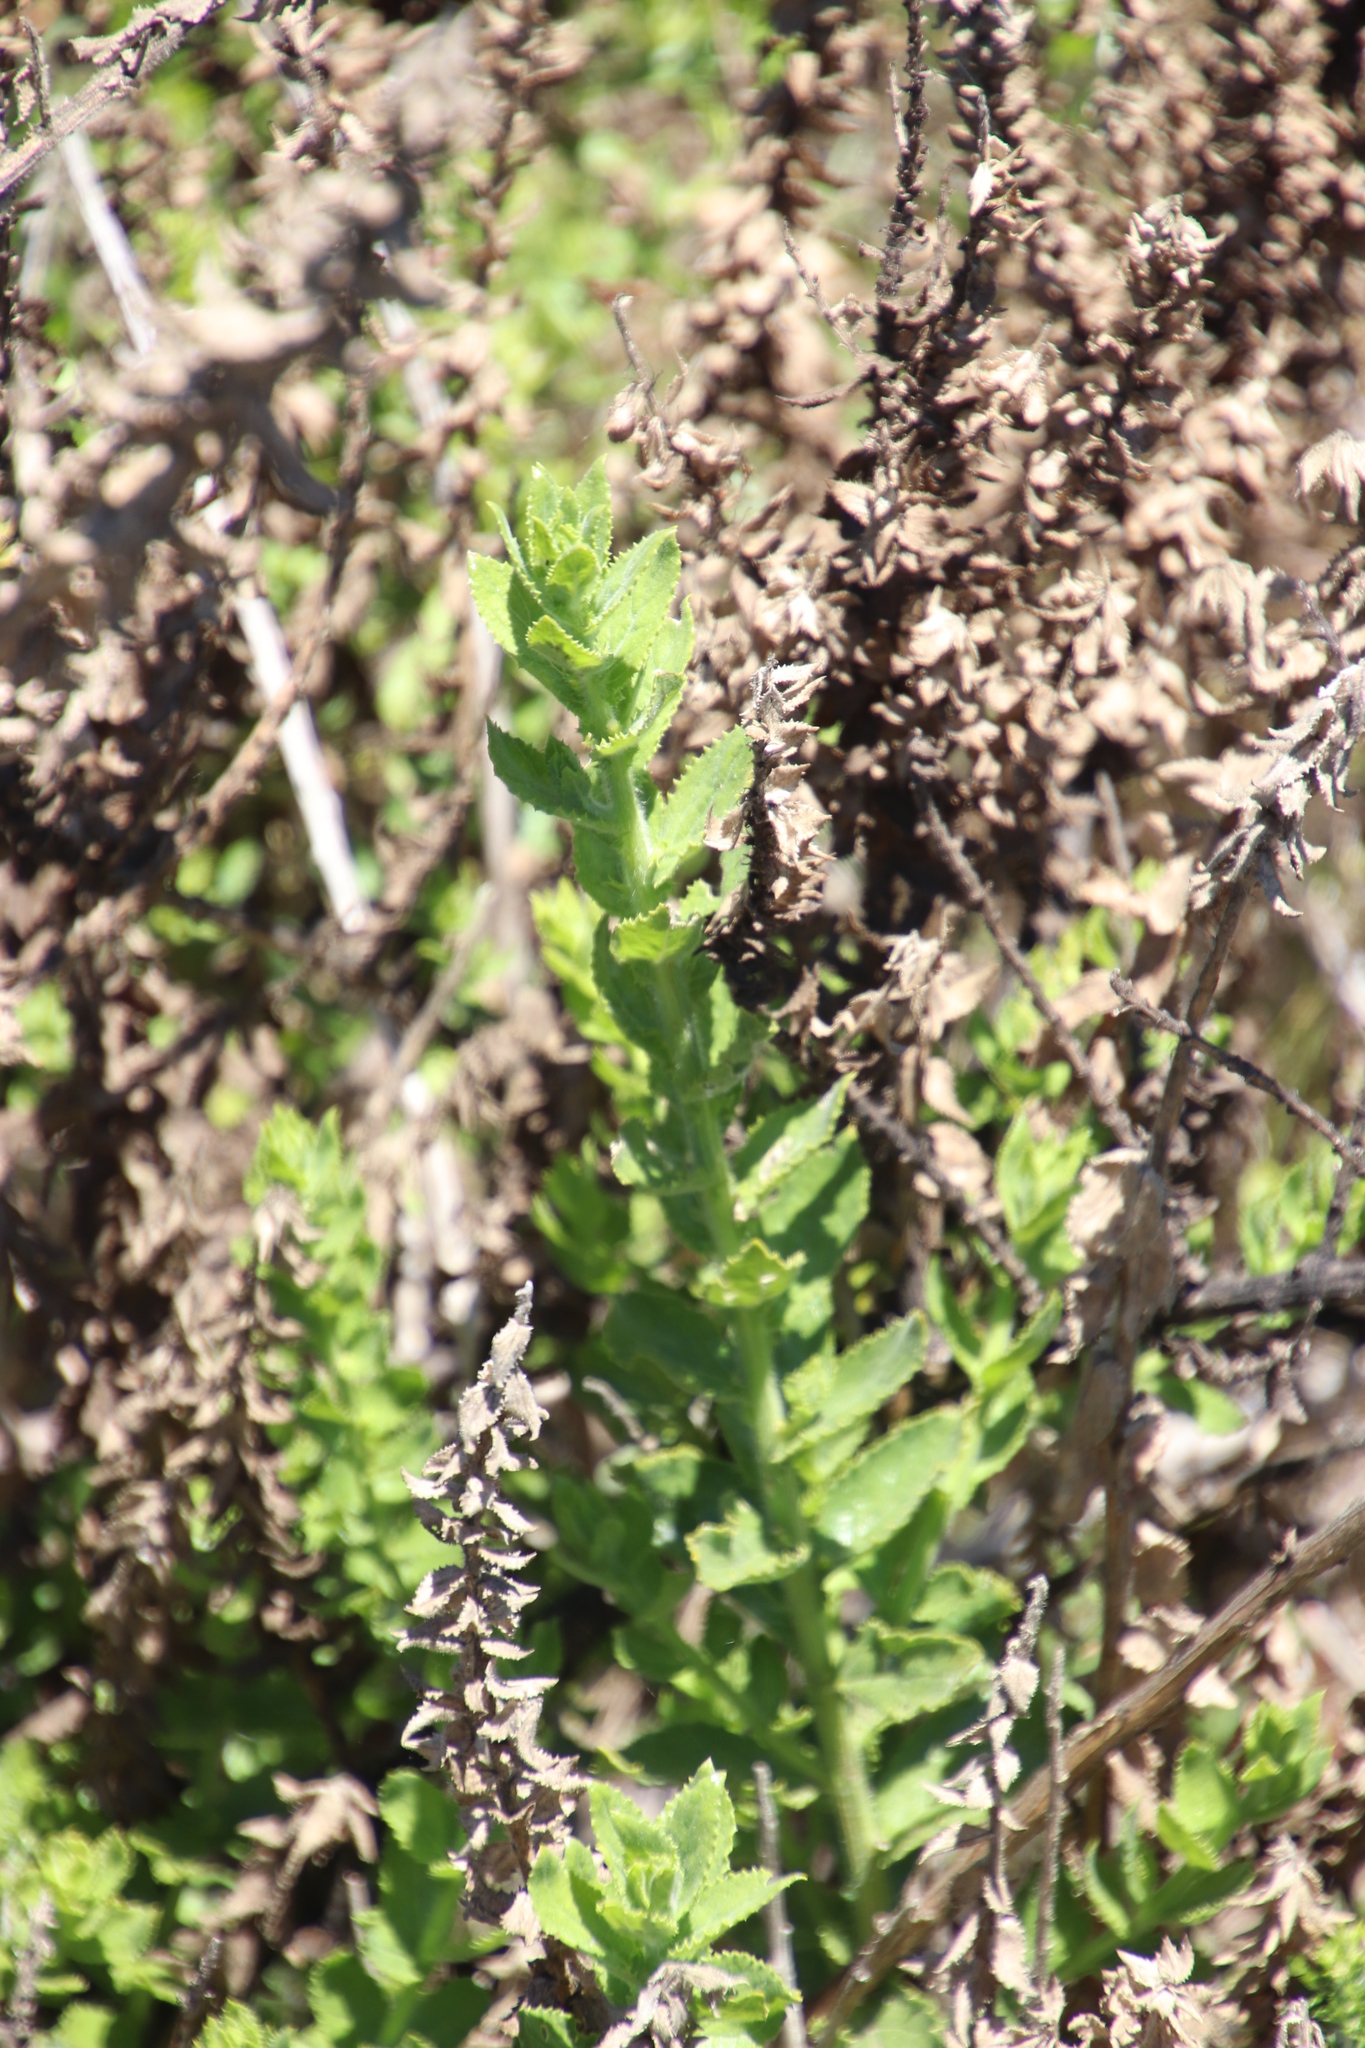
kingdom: Plantae
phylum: Tracheophyta
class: Magnoliopsida
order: Lamiales
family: Scrophulariaceae
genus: Oftia
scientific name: Oftia africana
